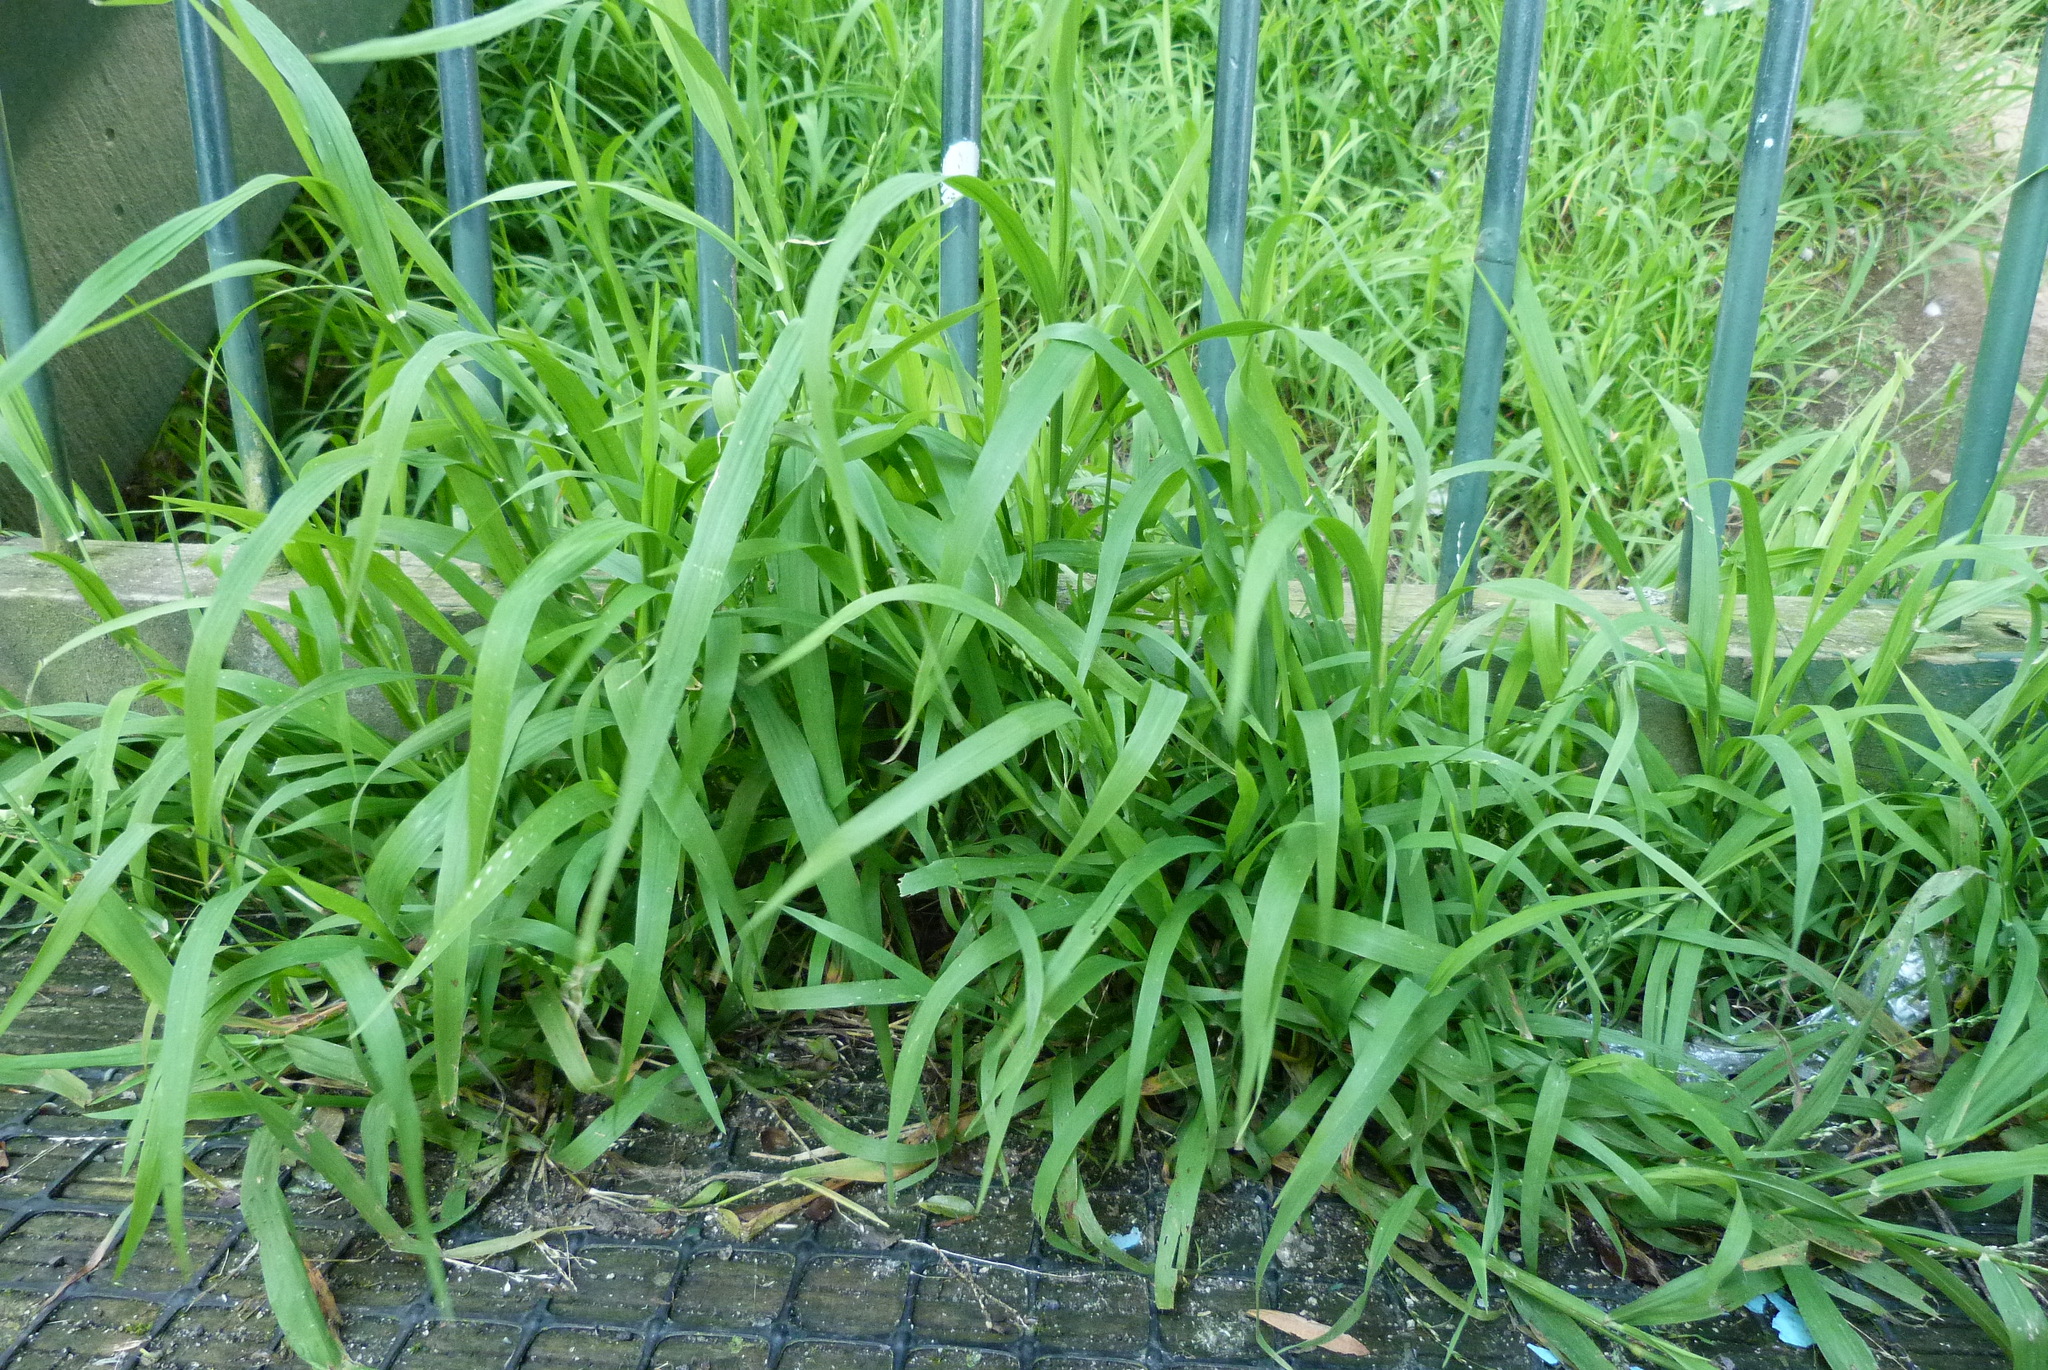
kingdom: Plantae
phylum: Tracheophyta
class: Liliopsida
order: Poales
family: Poaceae
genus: Ehrharta
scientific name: Ehrharta erecta
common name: Panic veldtgrass
